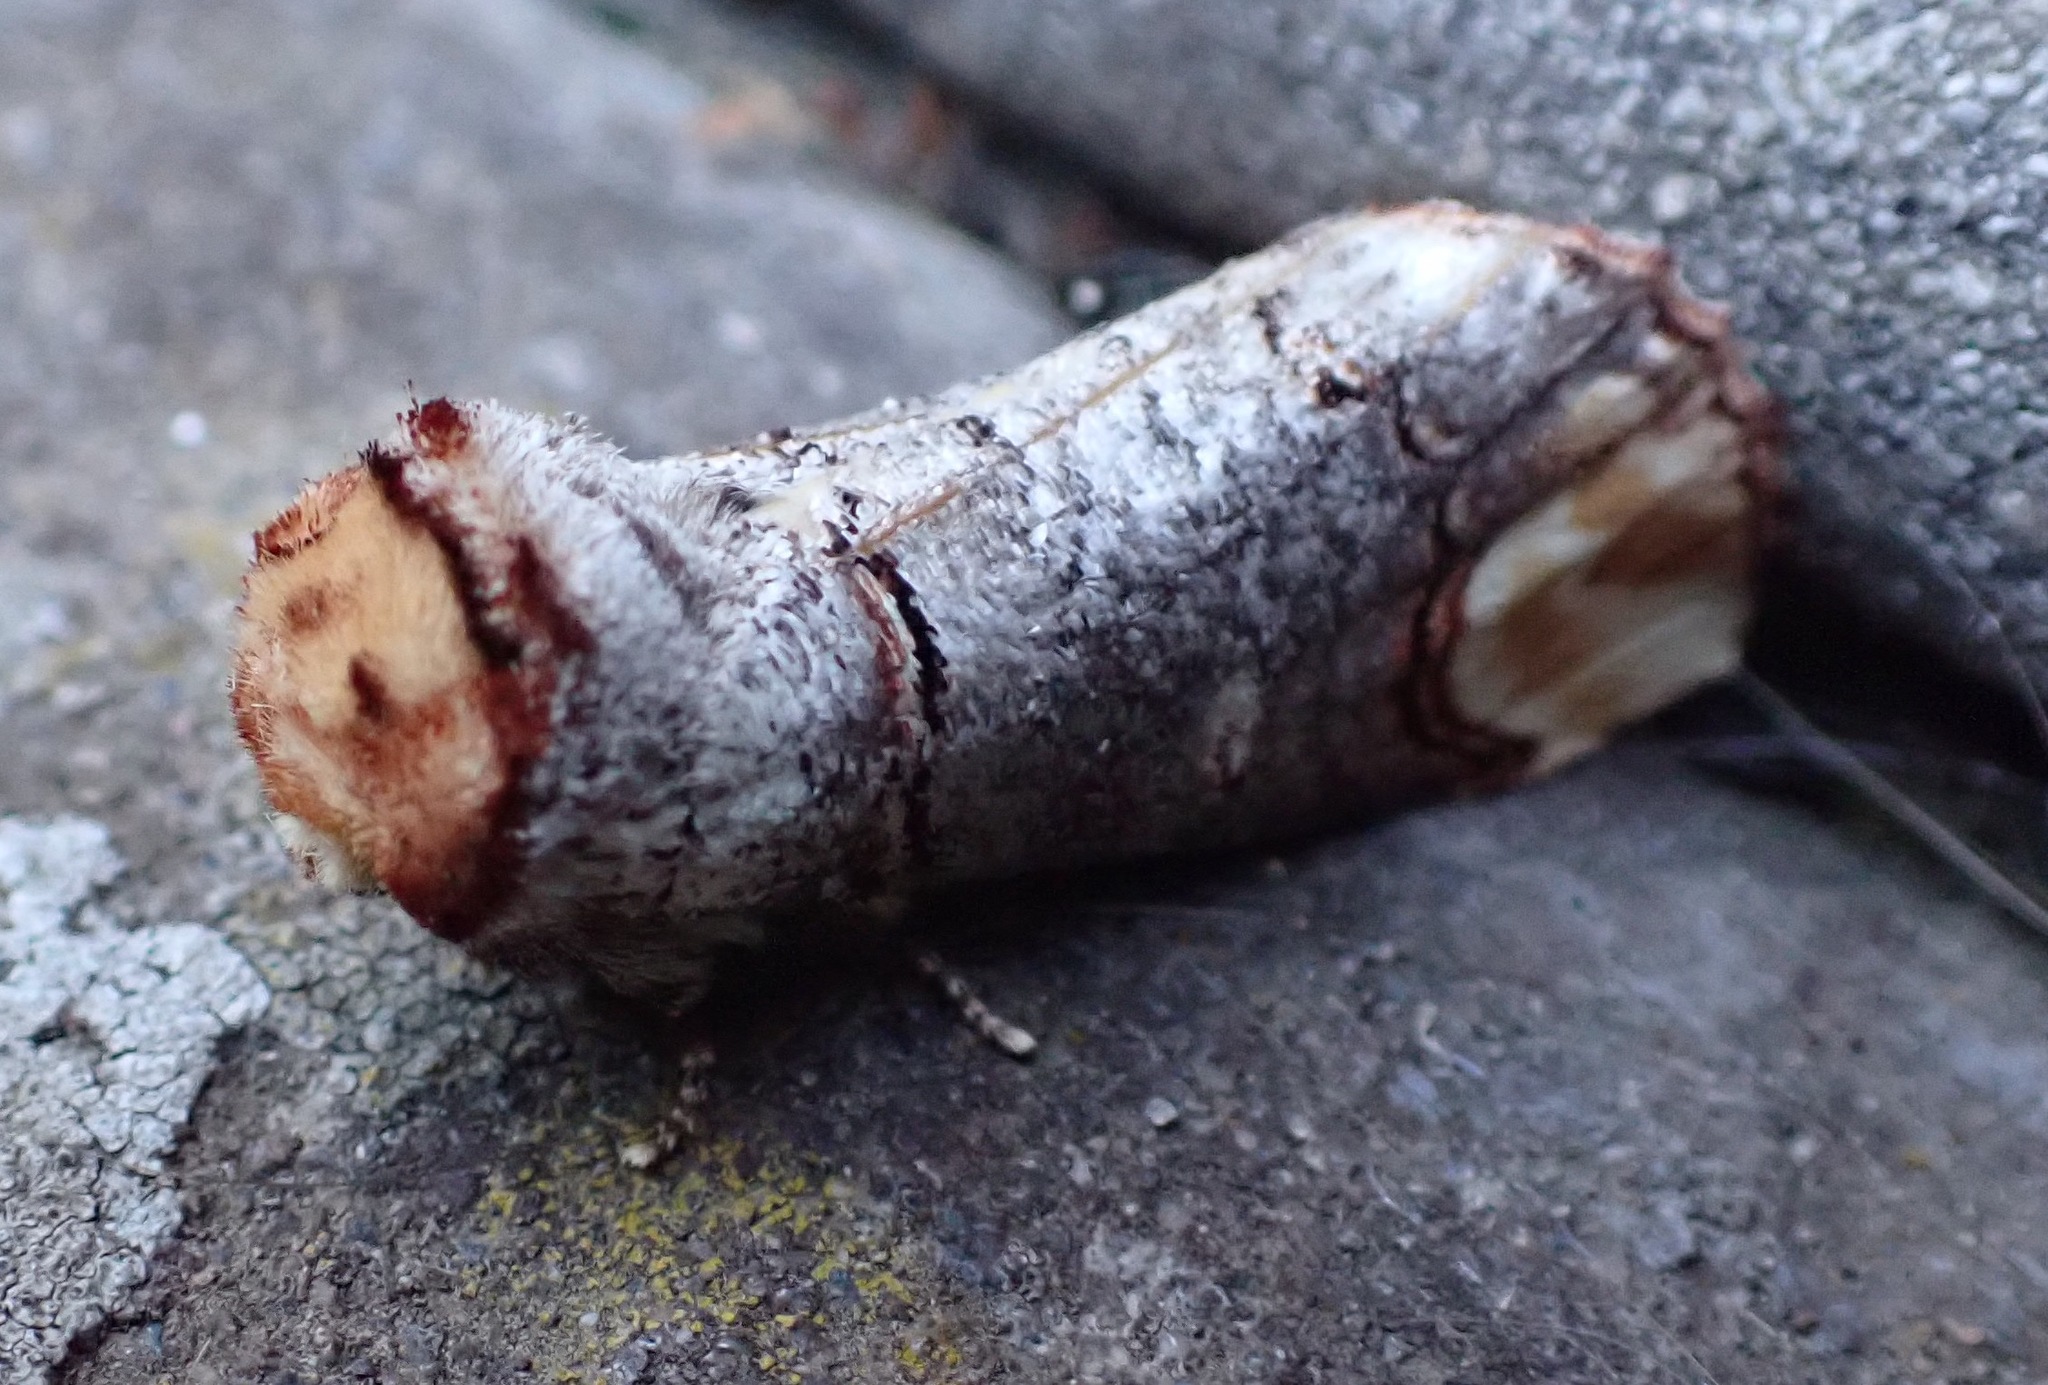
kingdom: Animalia
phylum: Arthropoda
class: Insecta
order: Lepidoptera
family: Notodontidae
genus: Phalera
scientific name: Phalera bucephala
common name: Buff-tip
